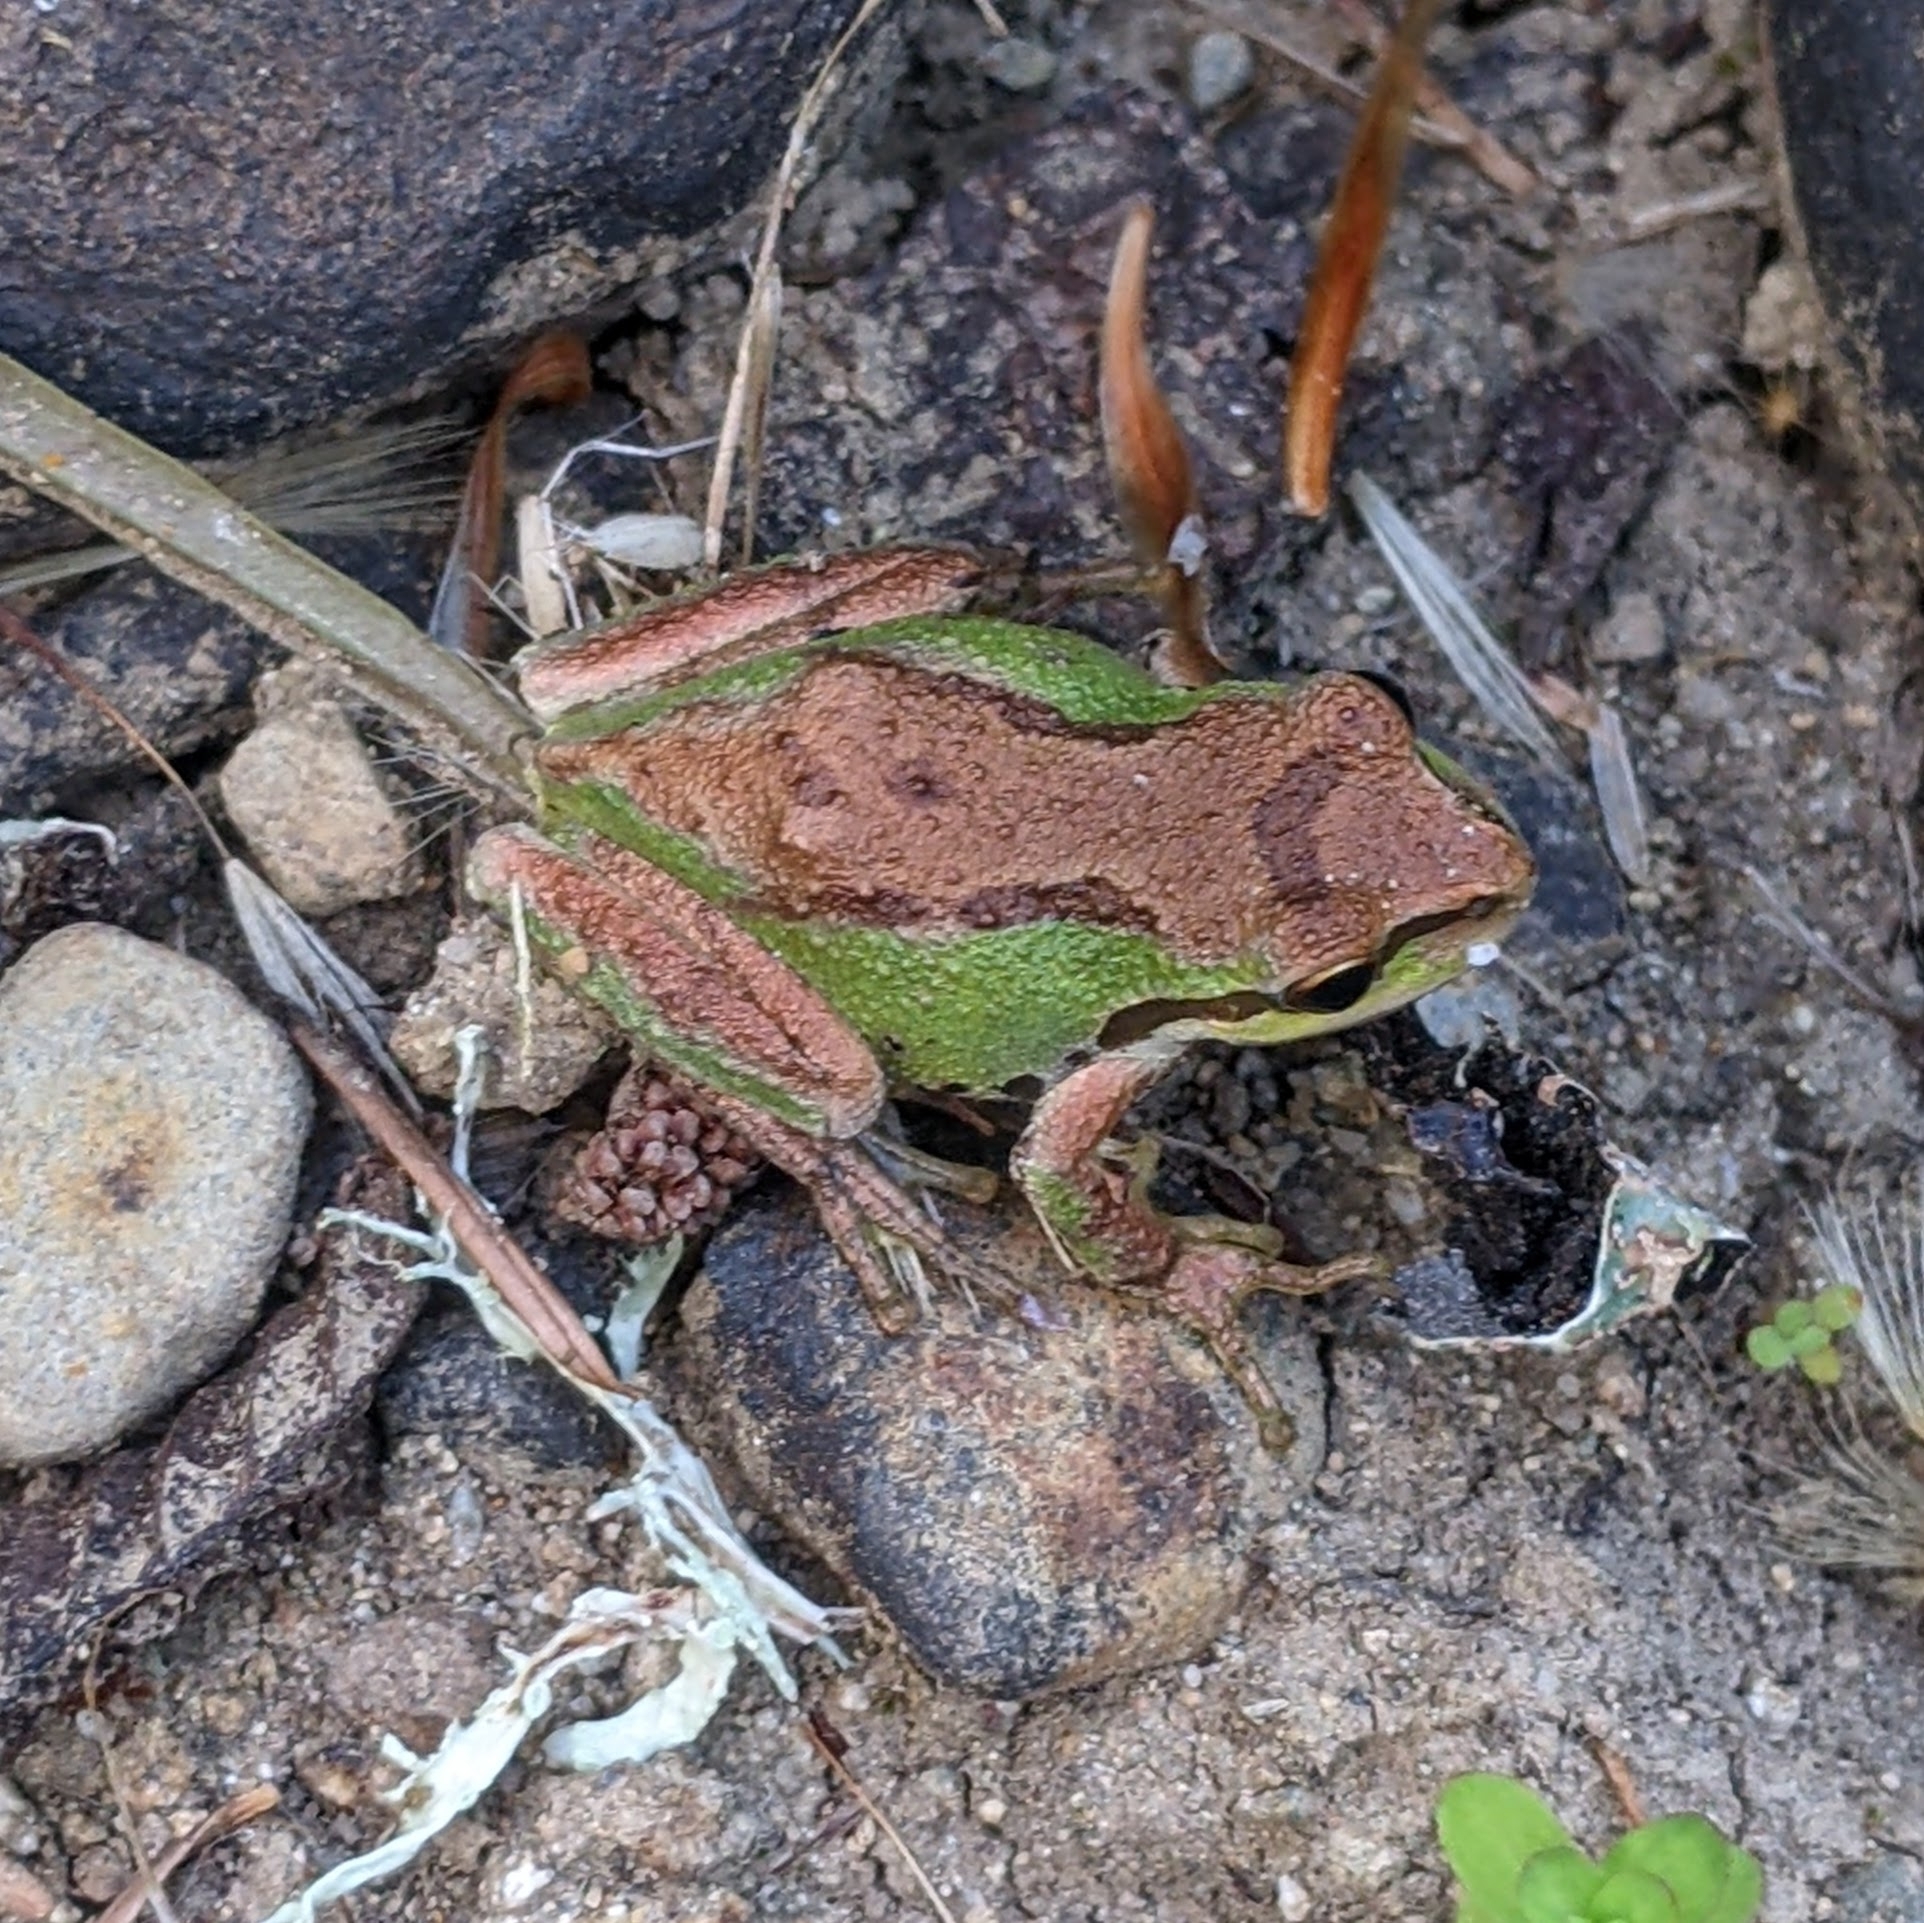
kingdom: Animalia
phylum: Chordata
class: Amphibia
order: Anura
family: Hylidae
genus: Pseudacris
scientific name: Pseudacris regilla
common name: Pacific chorus frog
